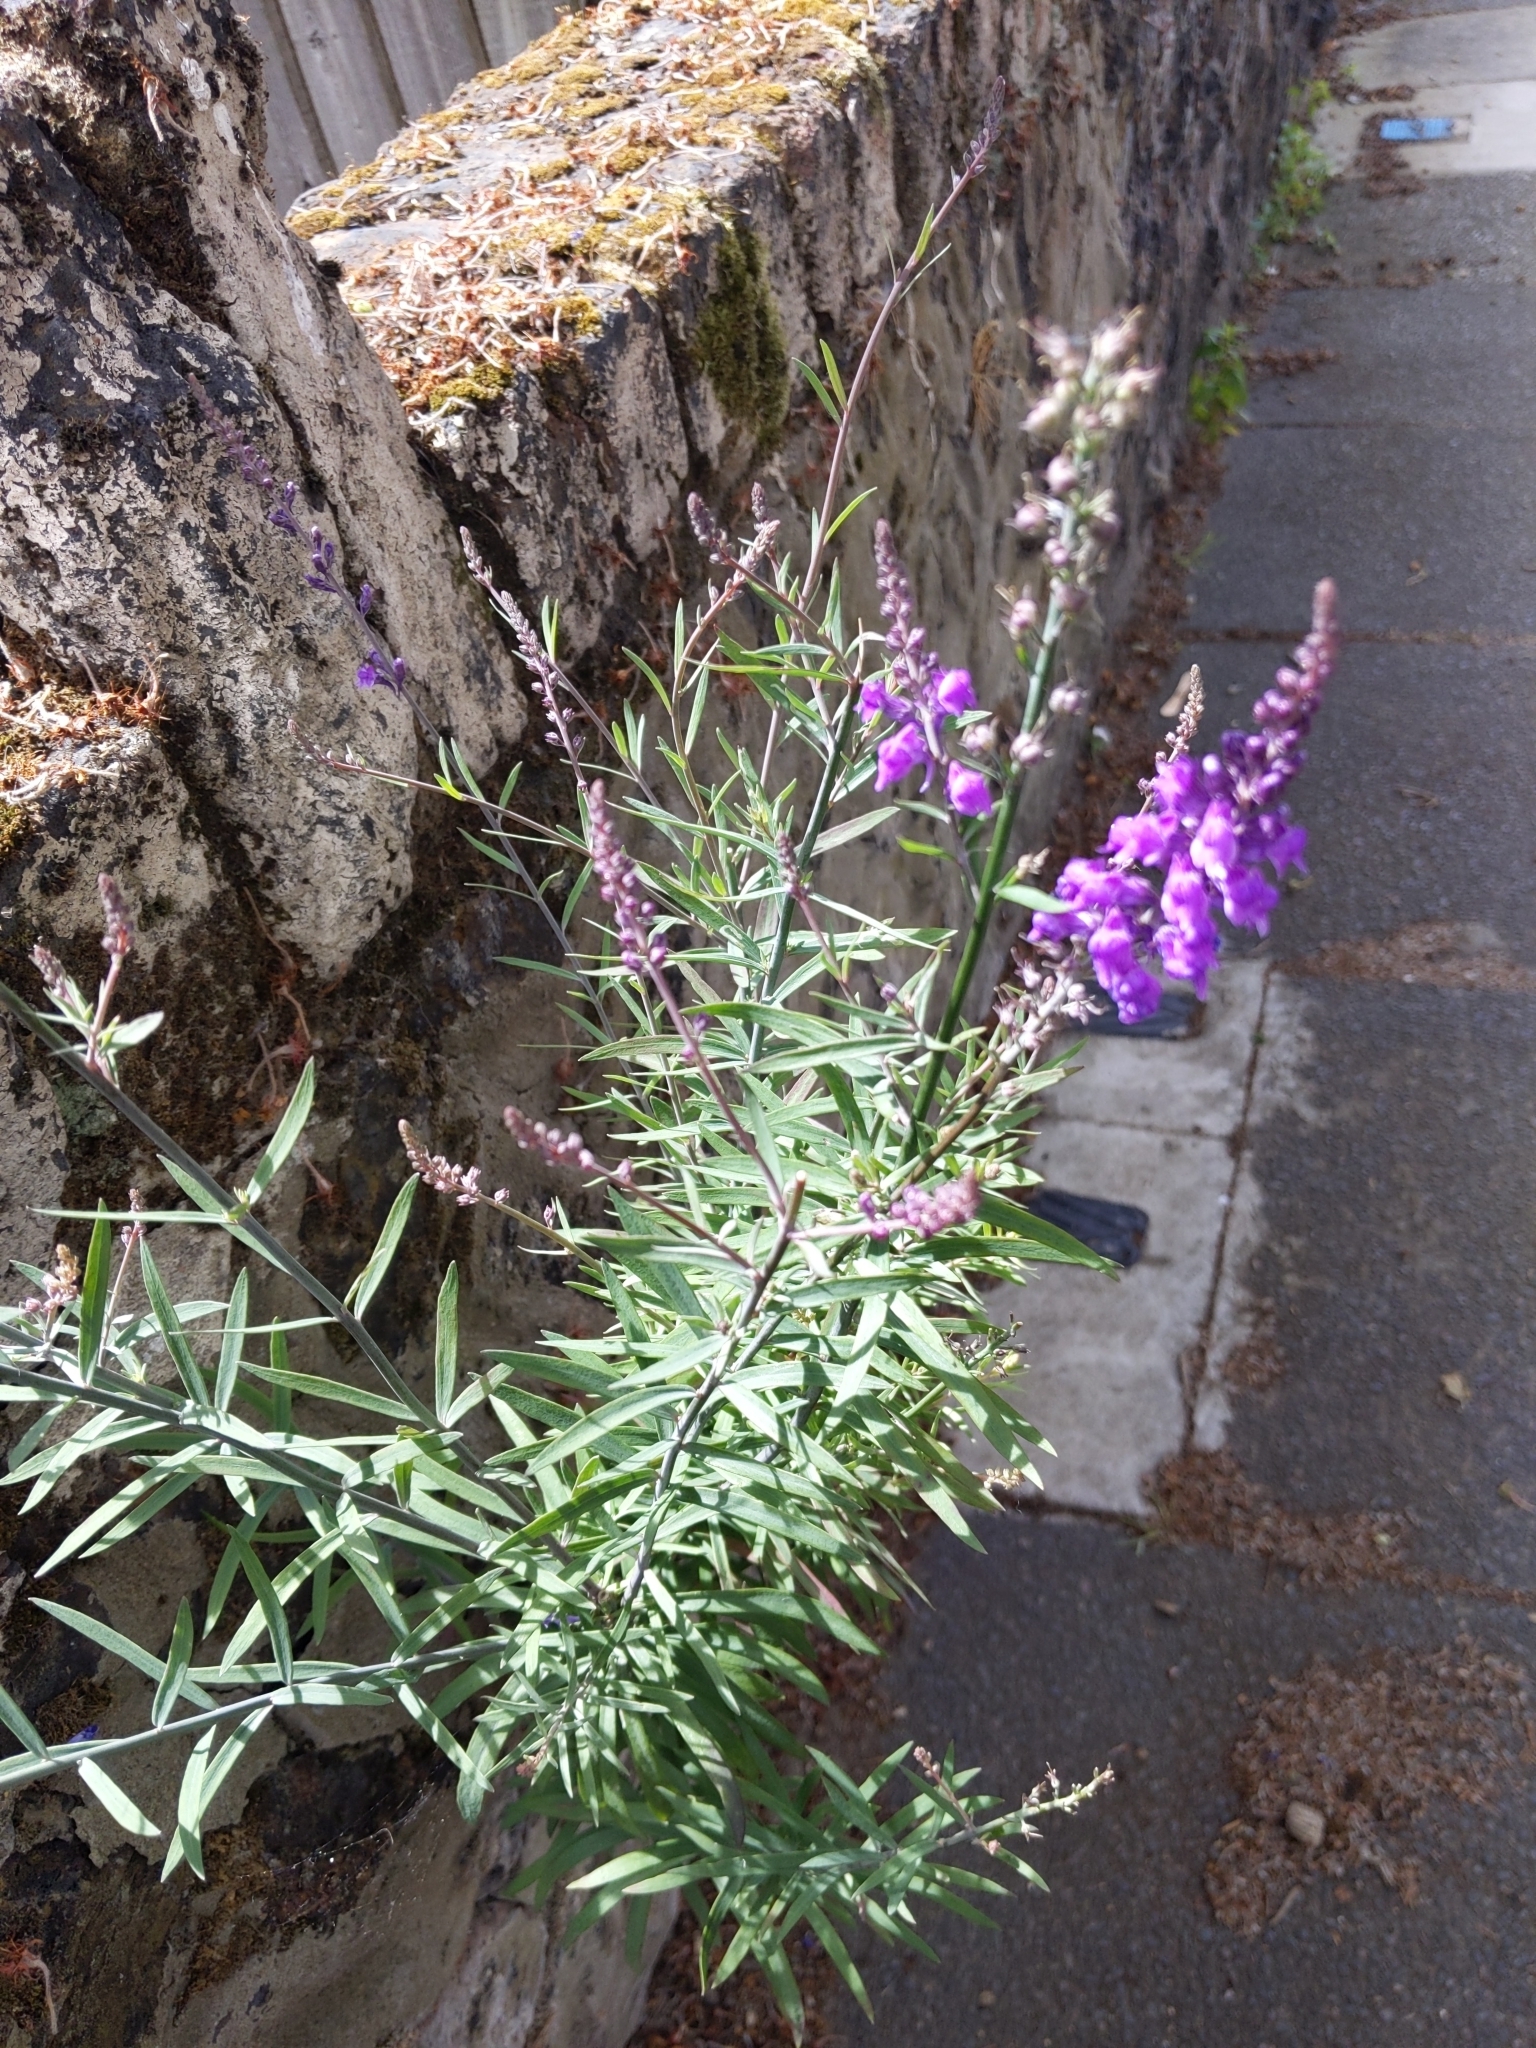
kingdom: Plantae
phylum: Tracheophyta
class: Magnoliopsida
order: Lamiales
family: Plantaginaceae
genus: Linaria
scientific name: Linaria purpurea
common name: Purple toadflax
